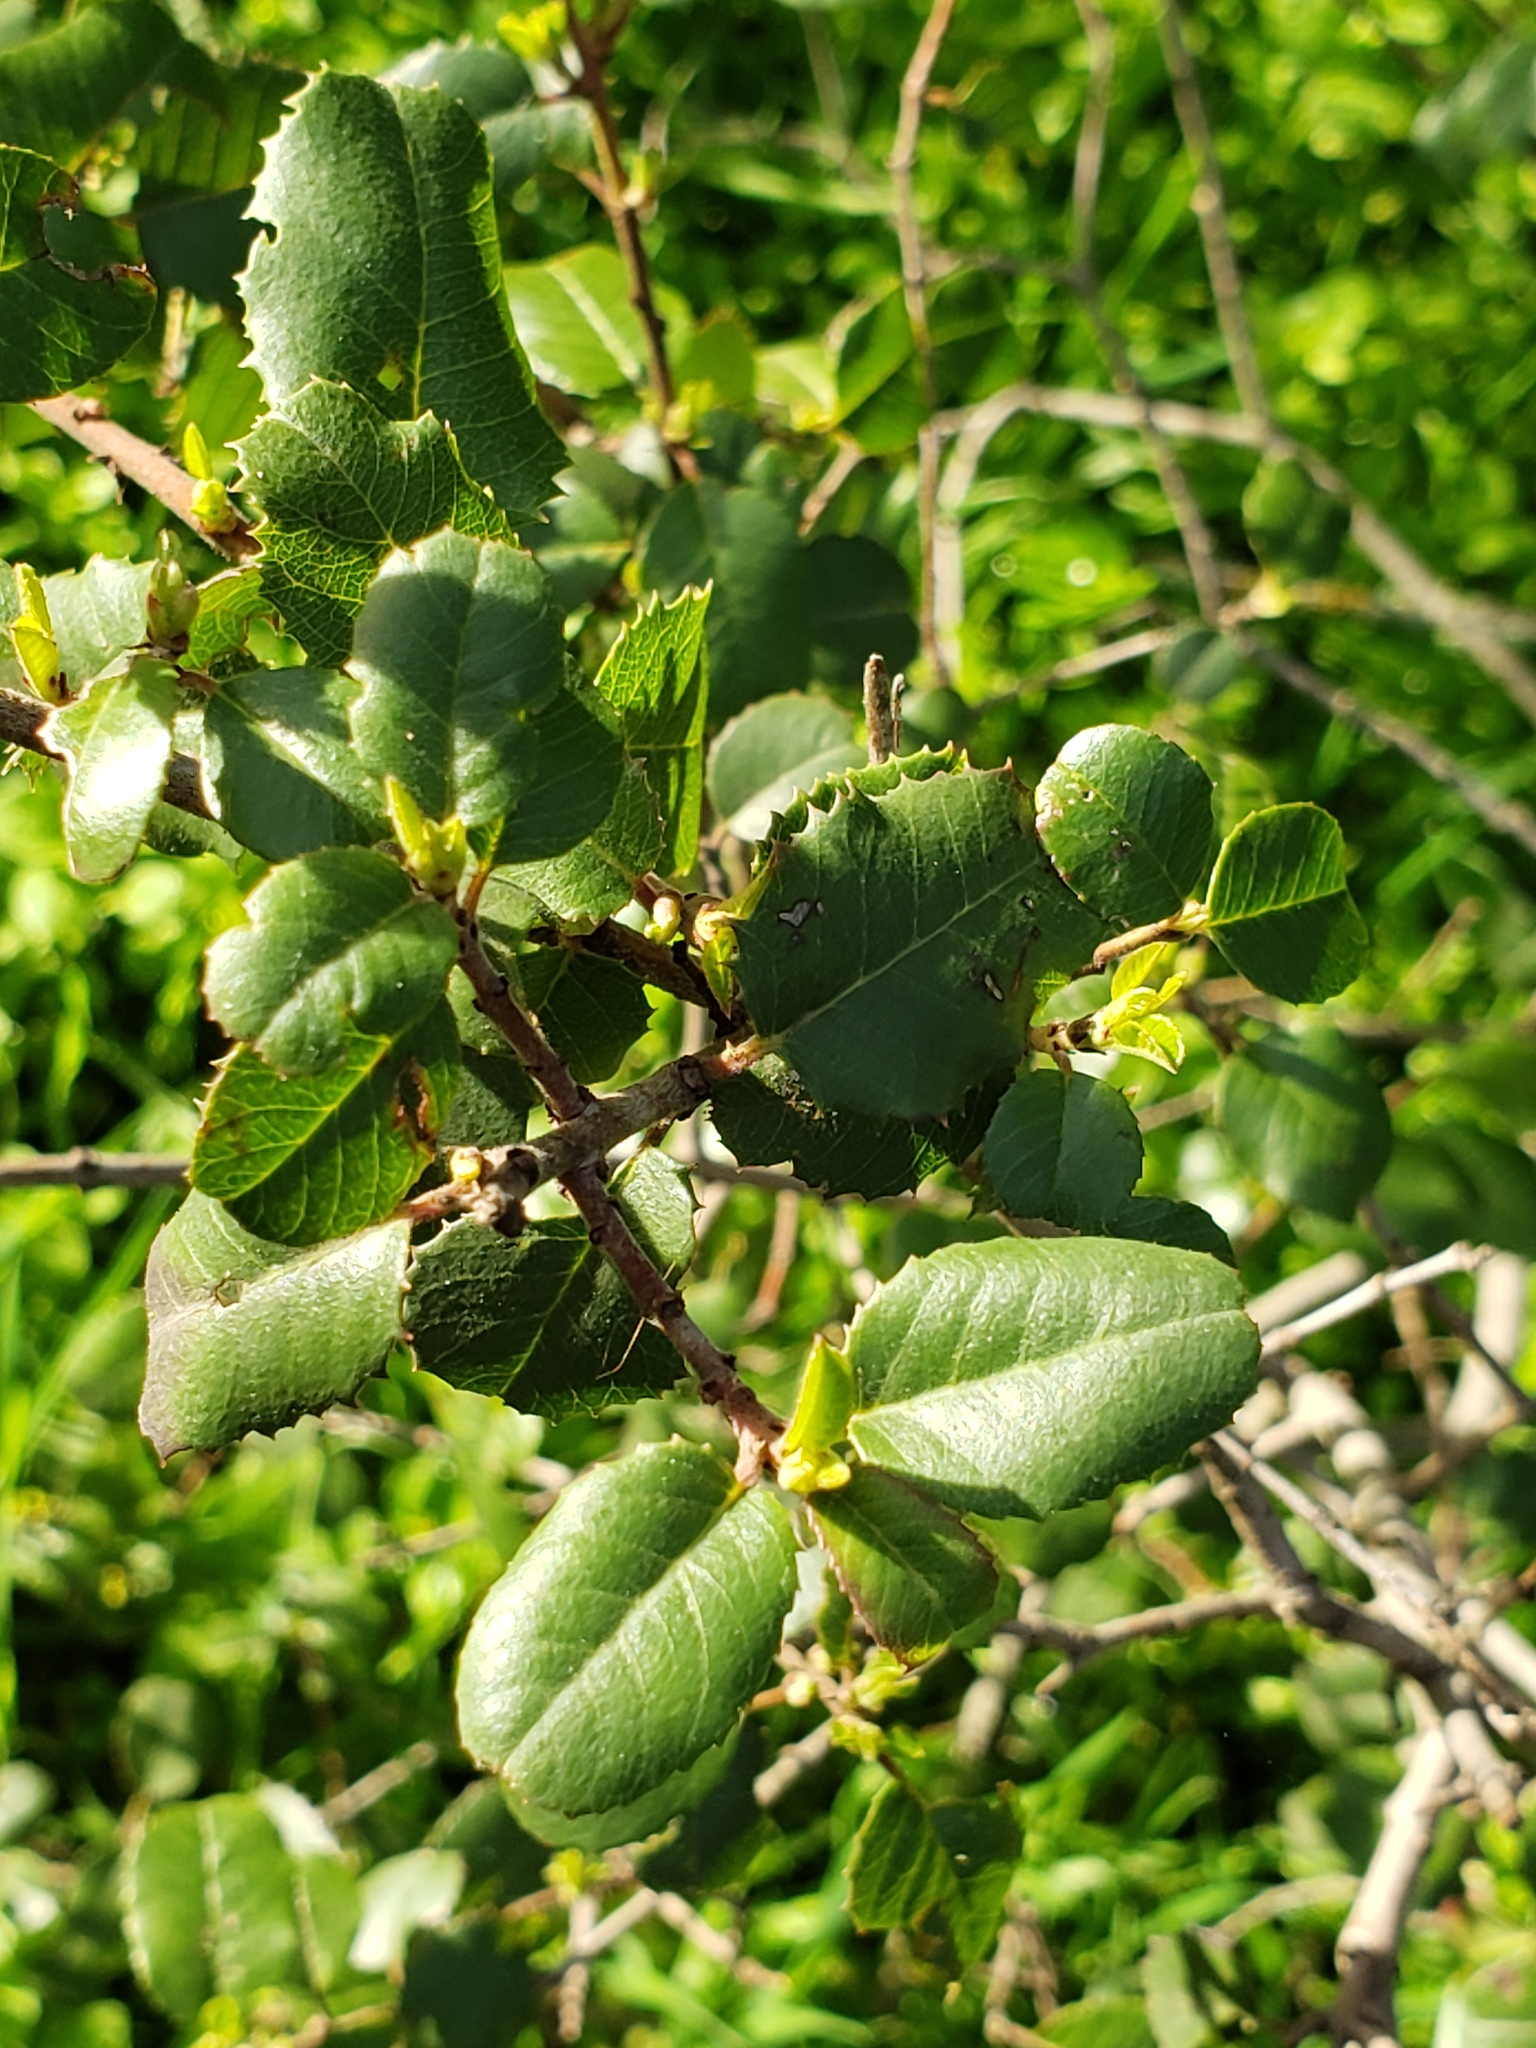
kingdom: Plantae
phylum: Tracheophyta
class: Magnoliopsida
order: Rosales
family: Rhamnaceae
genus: Endotropis
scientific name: Endotropis crocea
